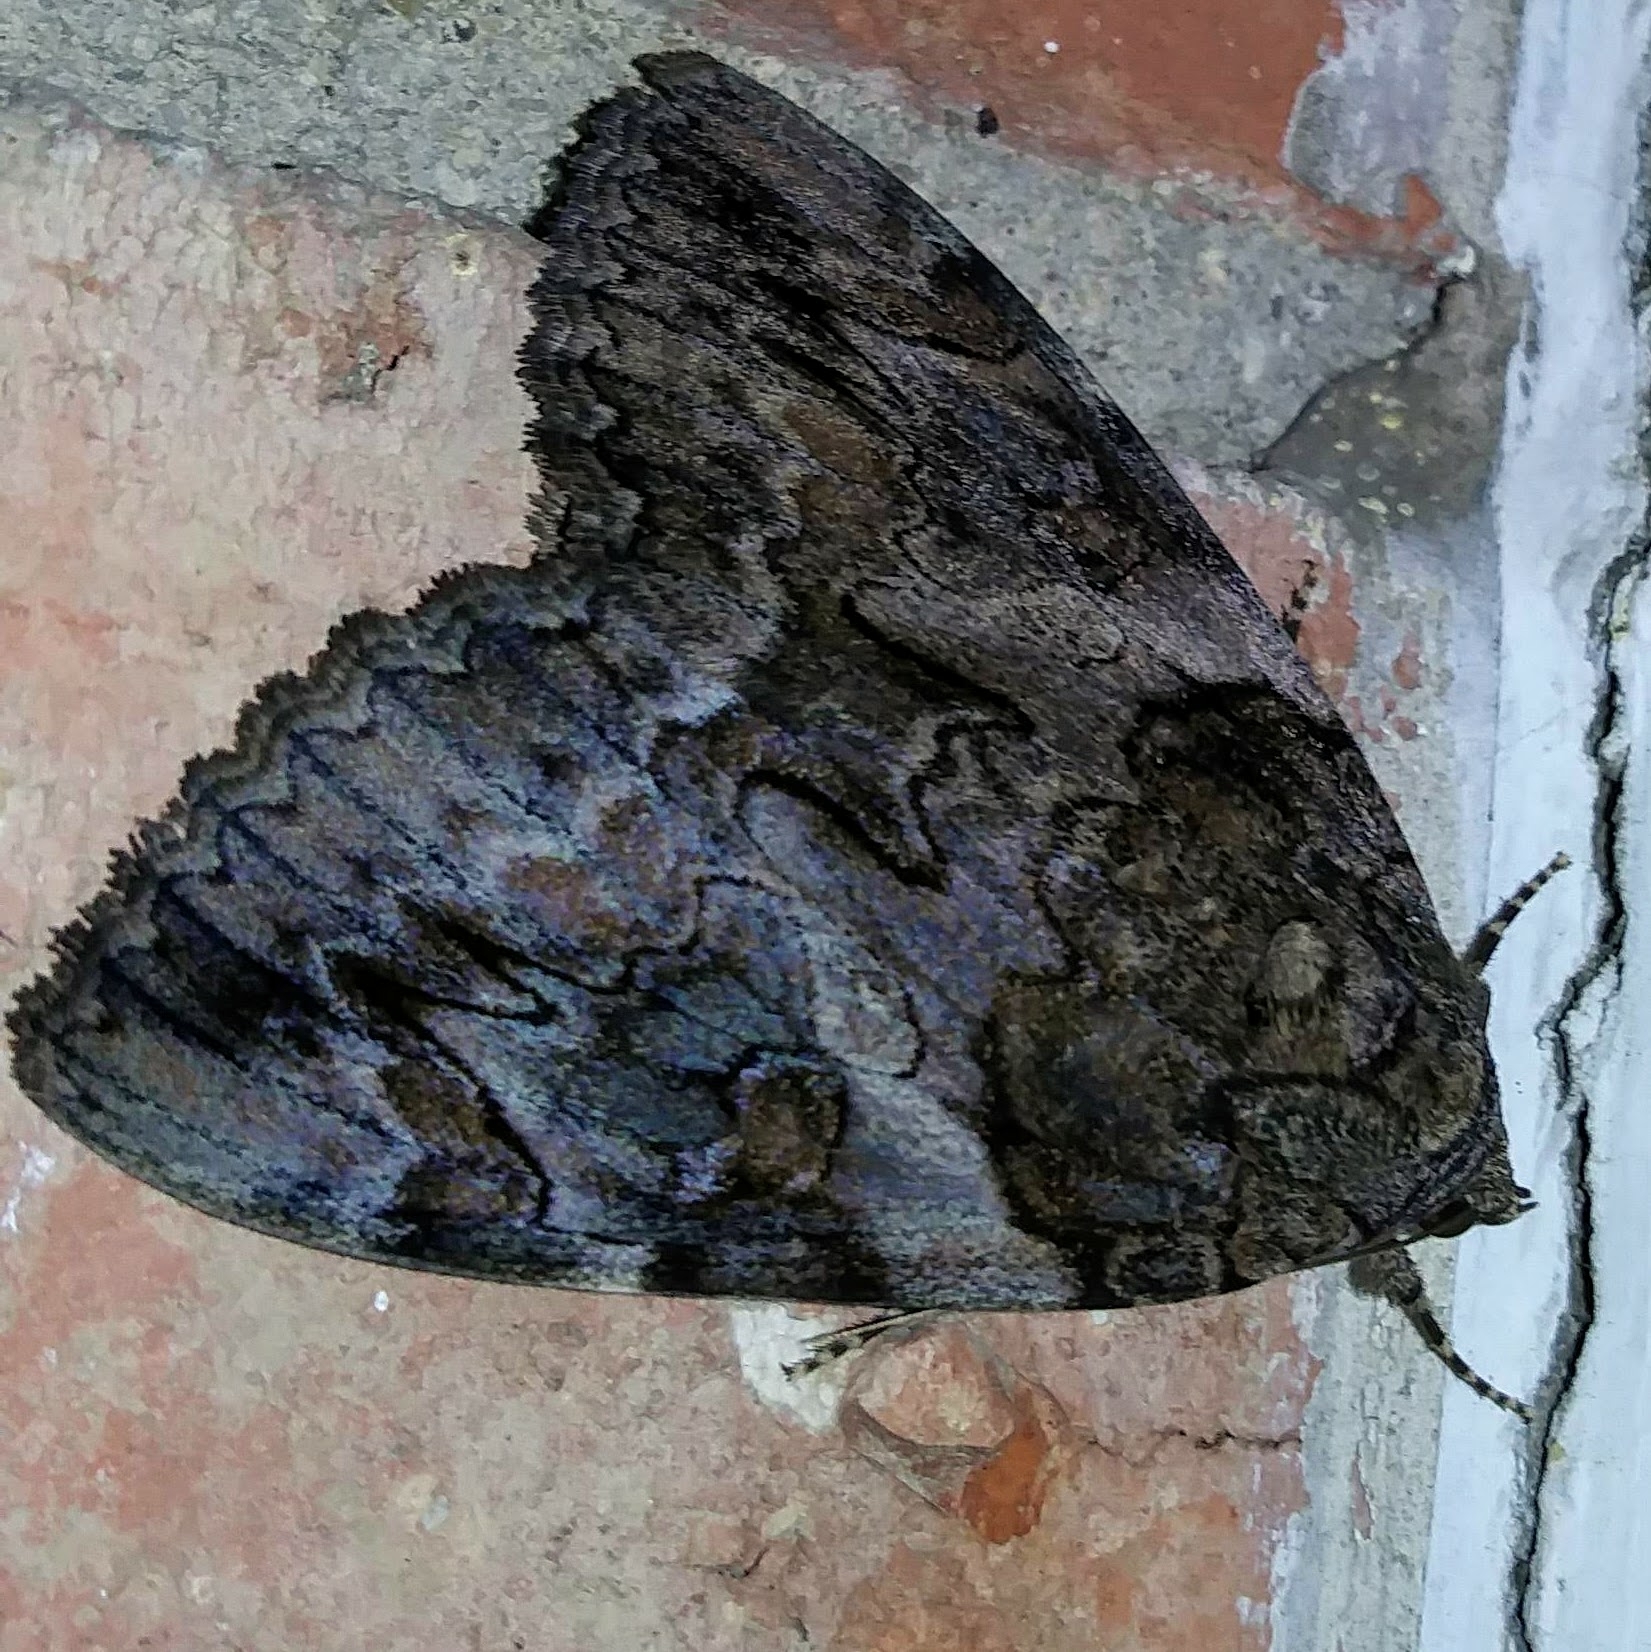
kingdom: Animalia
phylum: Arthropoda
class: Insecta
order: Lepidoptera
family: Erebidae
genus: Catocala
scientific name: Catocala piatrix
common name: The penitent underwing
